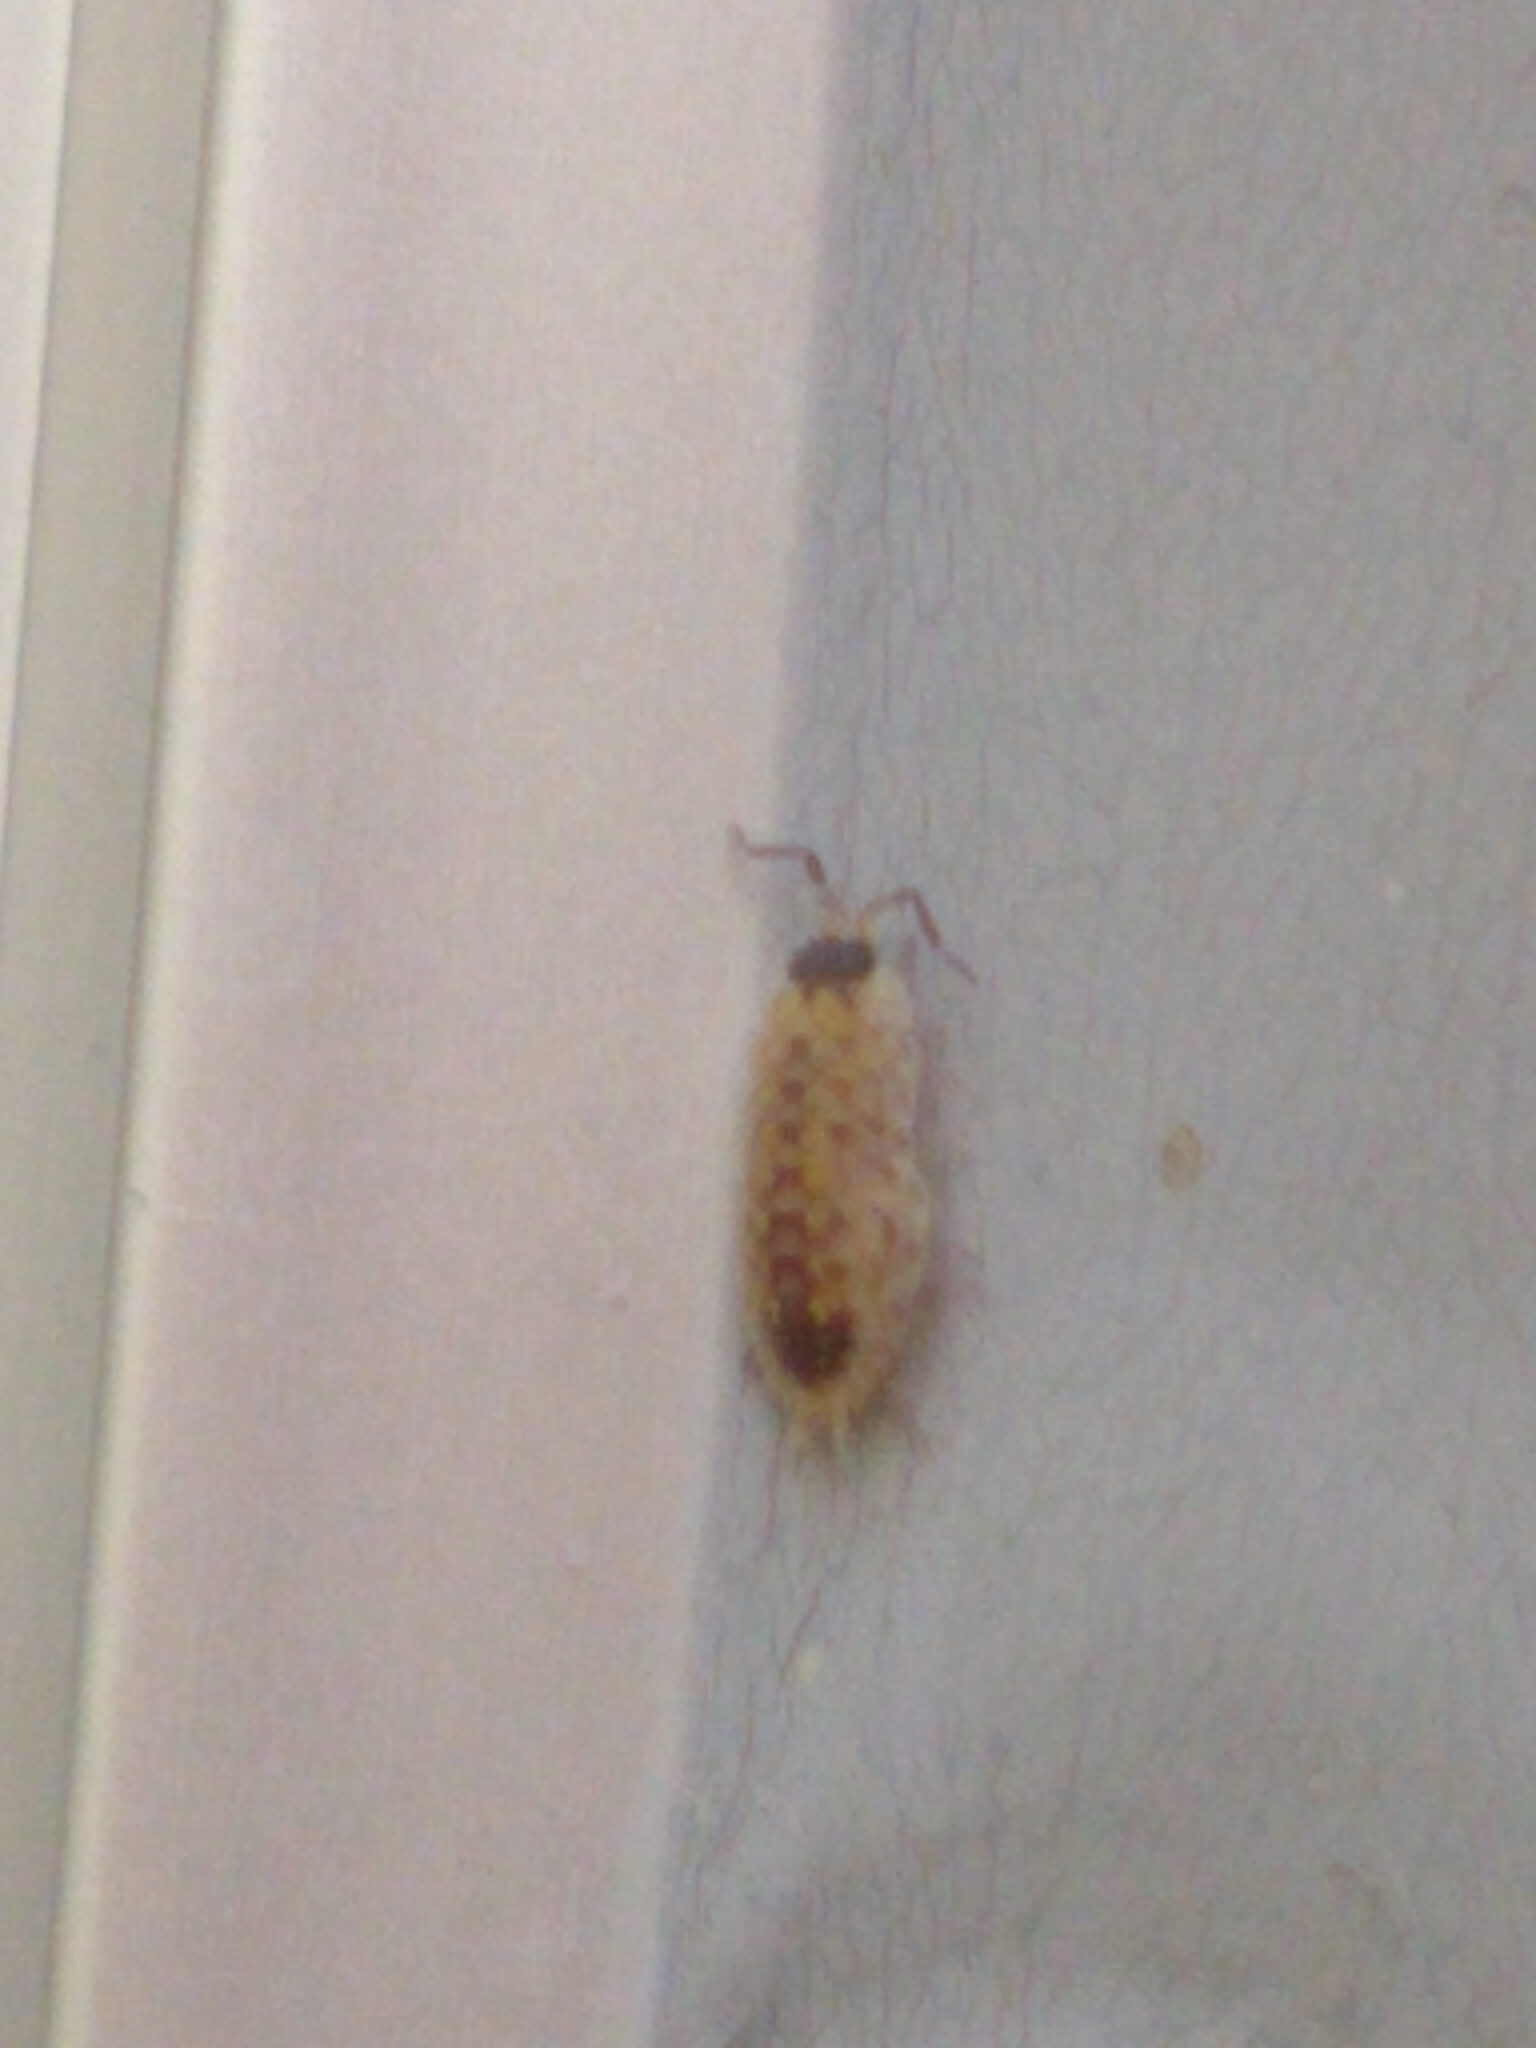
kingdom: Animalia
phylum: Arthropoda
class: Malacostraca
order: Isopoda
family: Porcellionidae
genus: Porcellio
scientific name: Porcellio spinicornis
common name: Painted woodlouse
